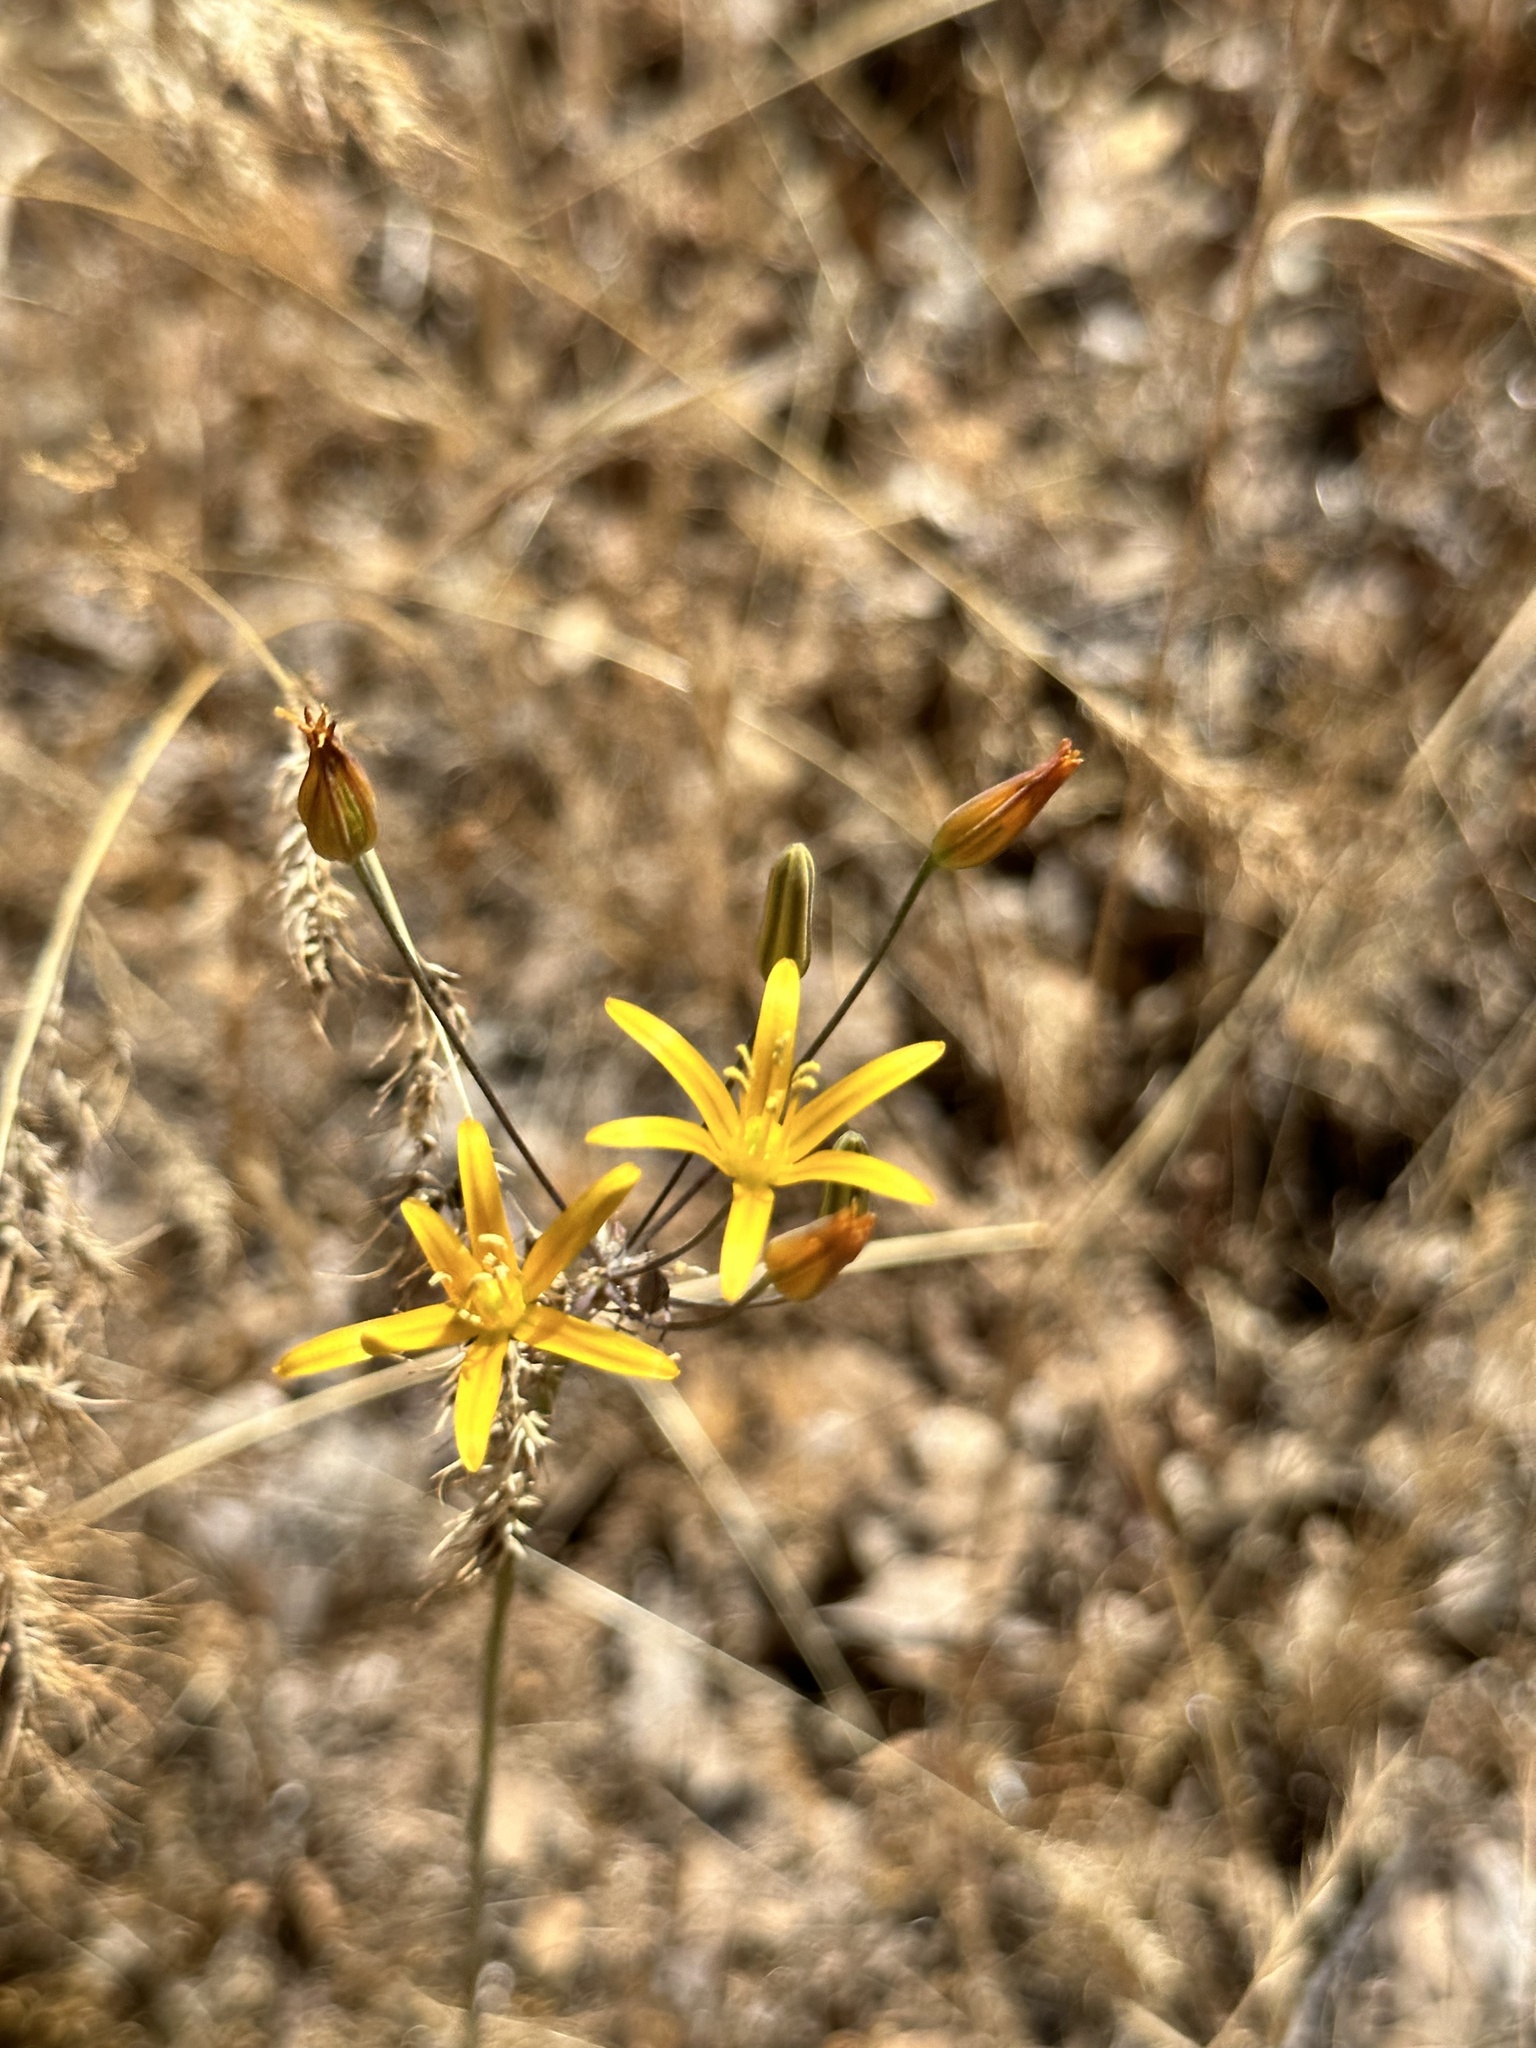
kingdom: Plantae
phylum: Tracheophyta
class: Liliopsida
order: Asparagales
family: Asparagaceae
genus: Bloomeria
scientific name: Bloomeria crocea
